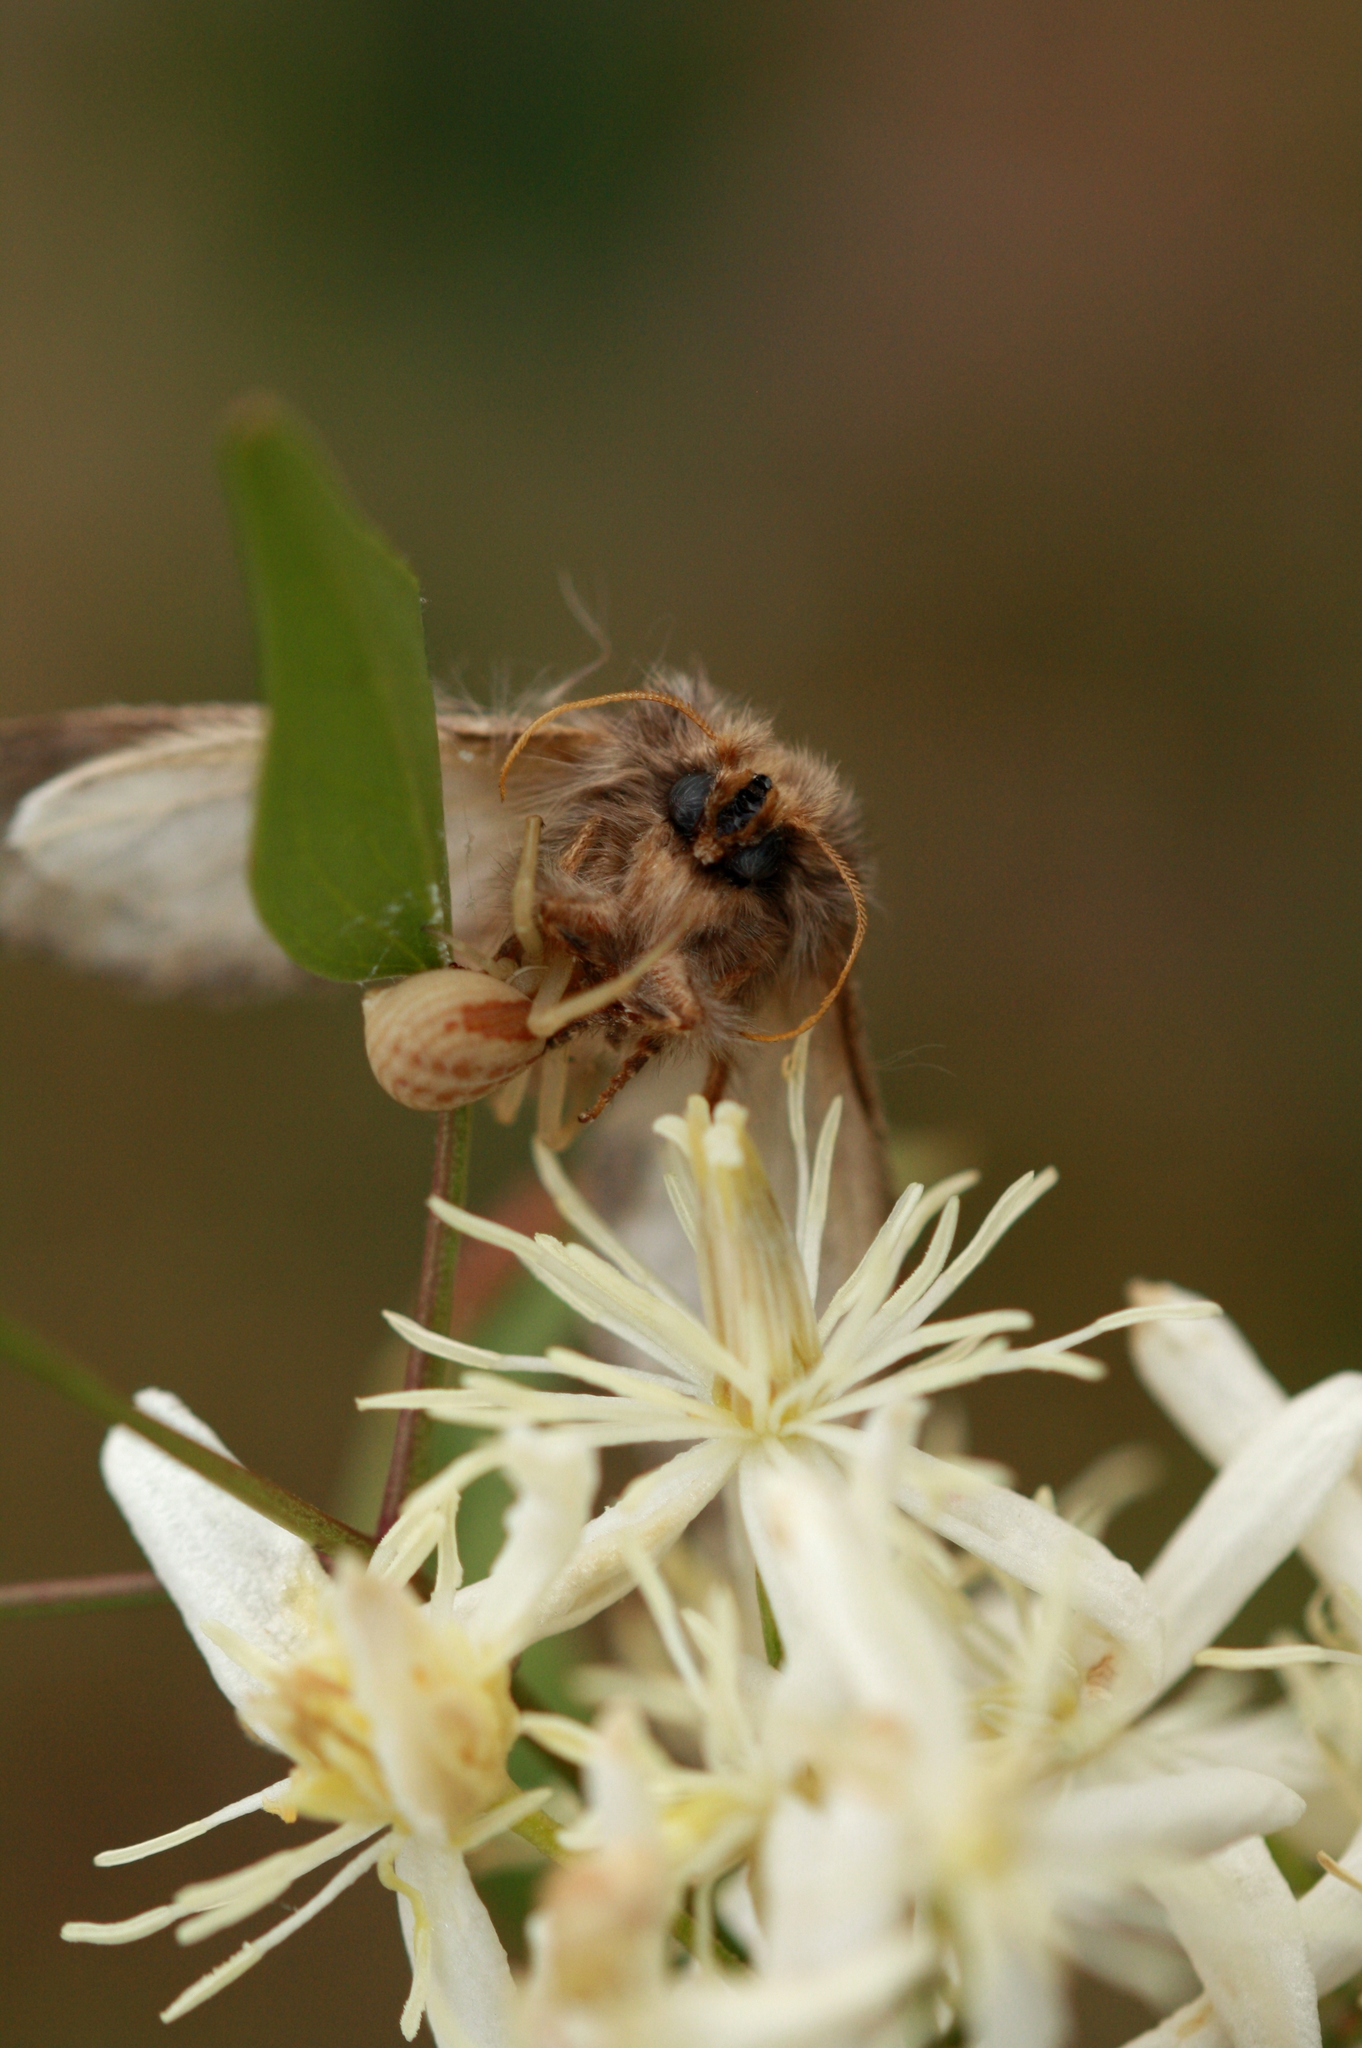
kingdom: Animalia
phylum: Arthropoda
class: Arachnida
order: Araneae
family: Thomisidae
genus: Runcinia
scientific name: Runcinia grammica
